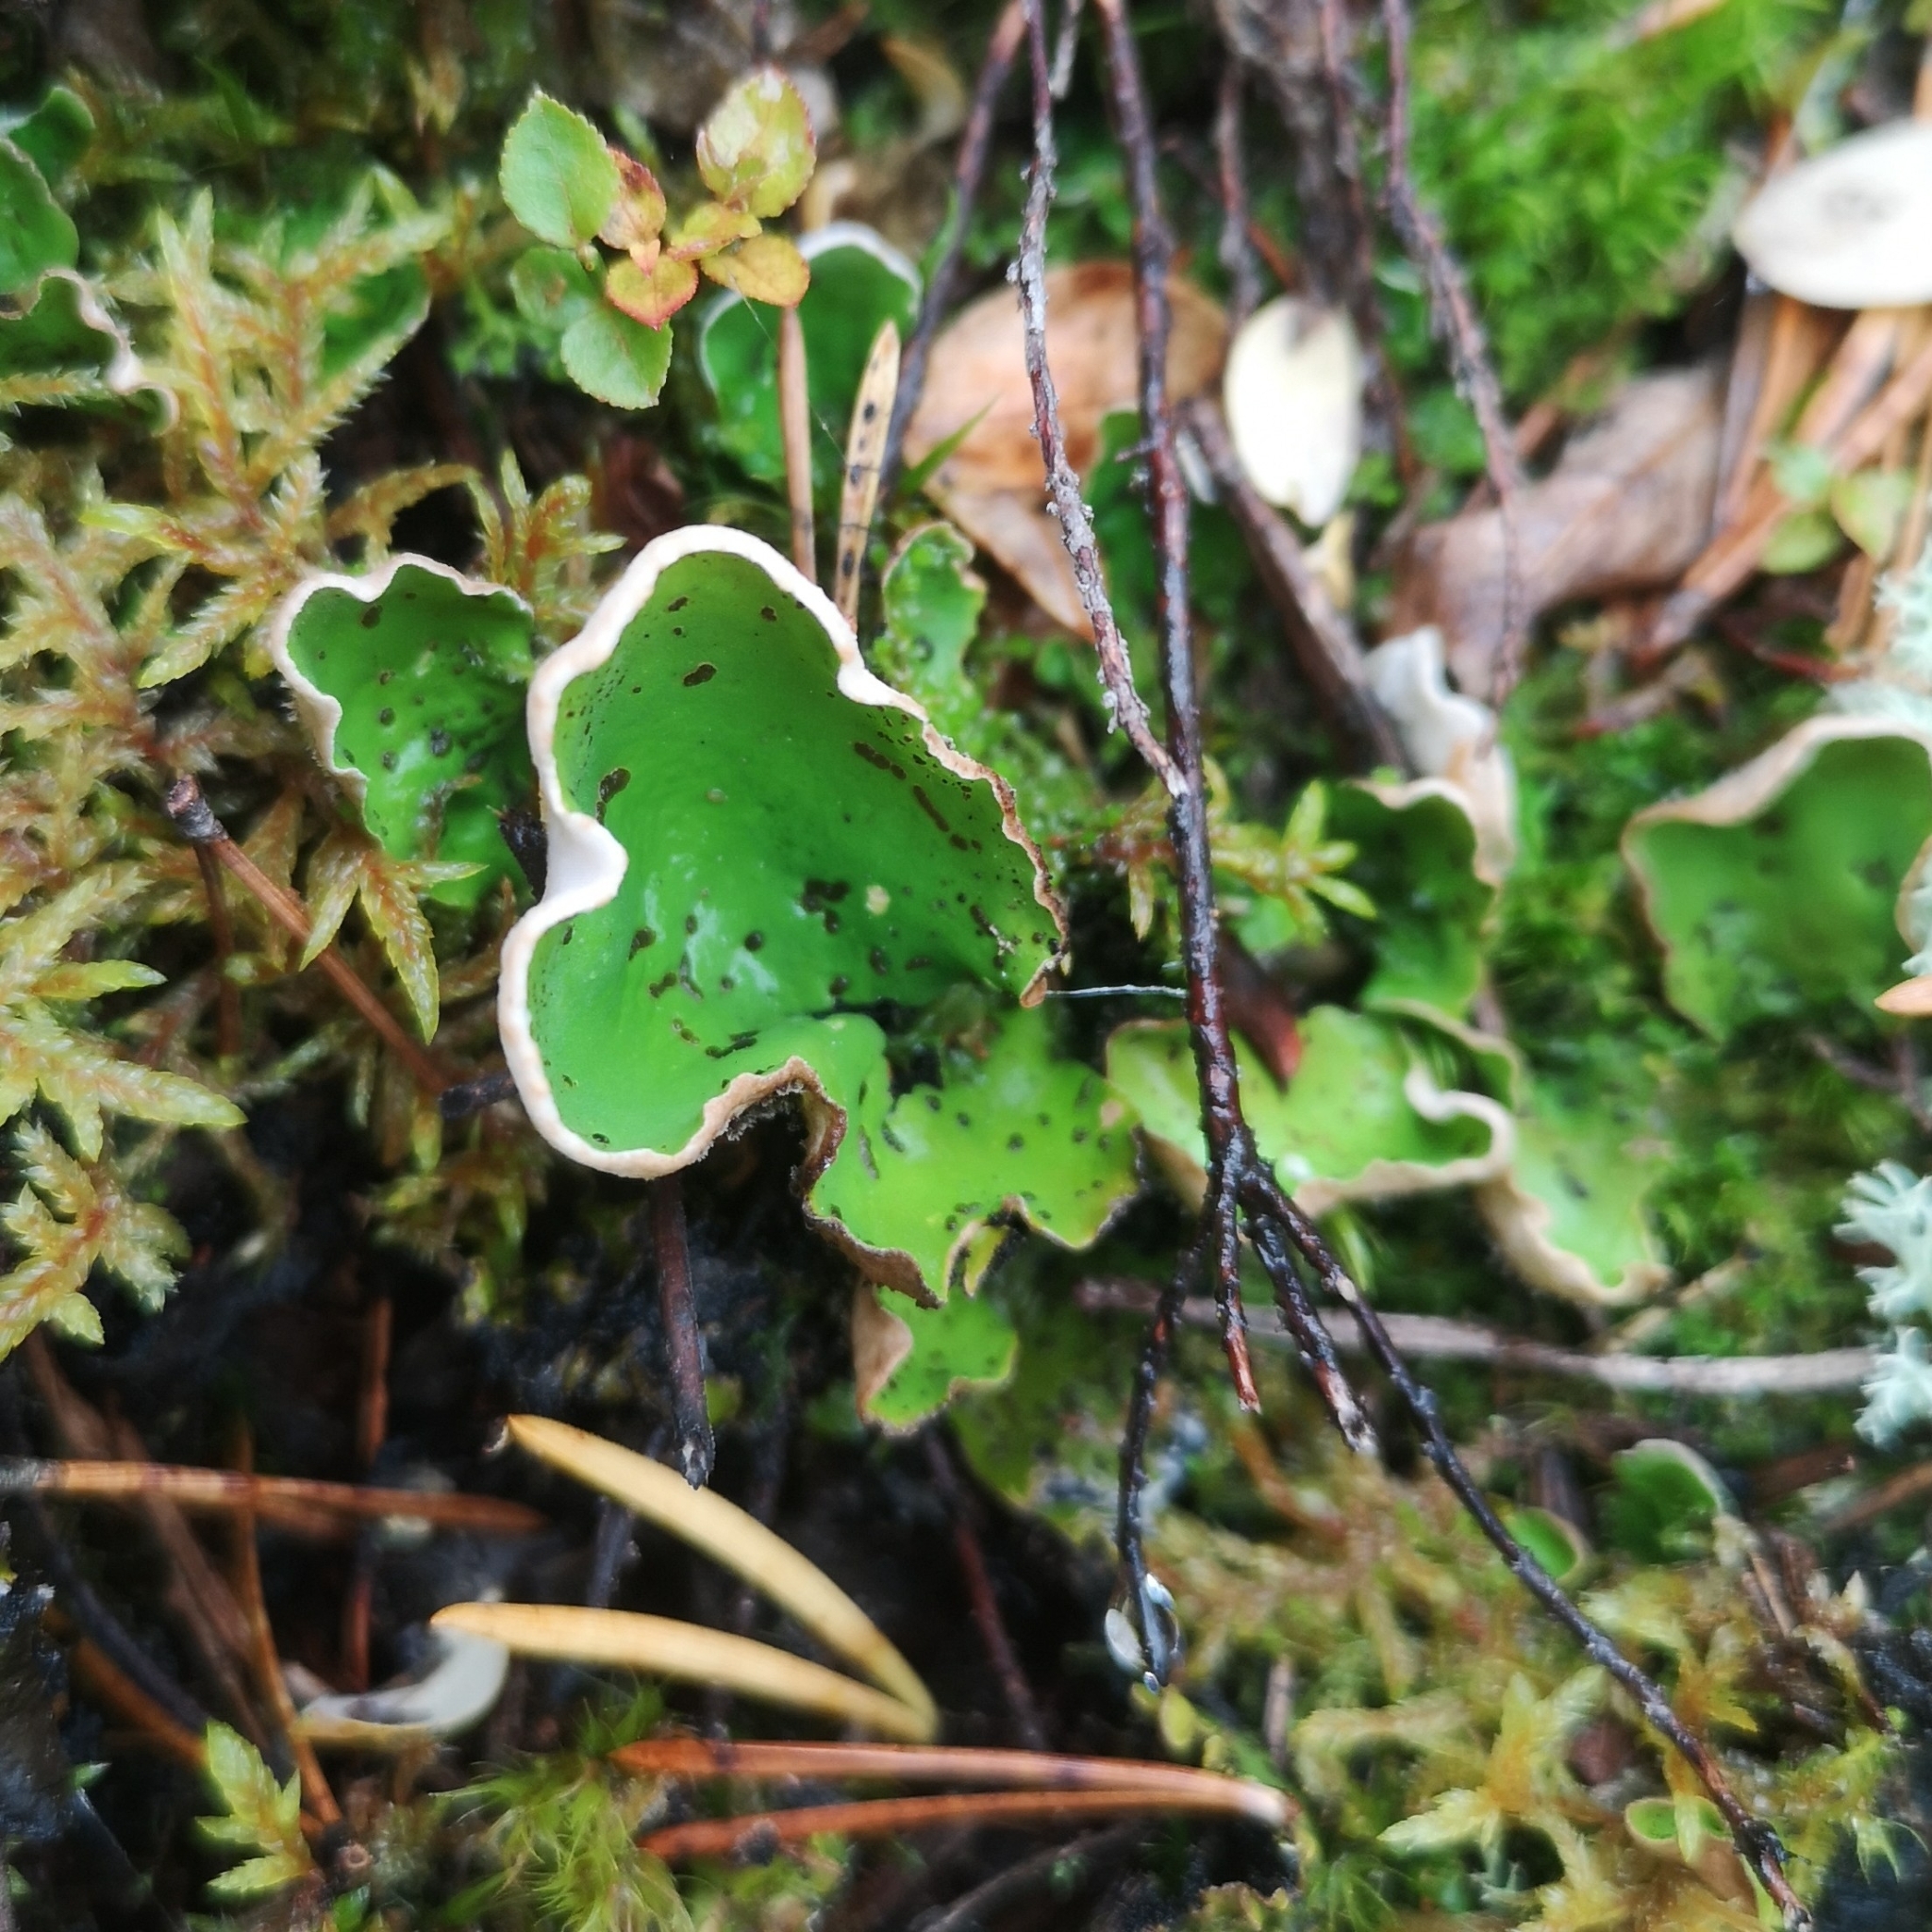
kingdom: Fungi
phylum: Ascomycota
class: Lecanoromycetes
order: Peltigerales
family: Peltigeraceae
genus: Peltigera
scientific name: Peltigera aphthosa
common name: Common freckle pelt lichen
